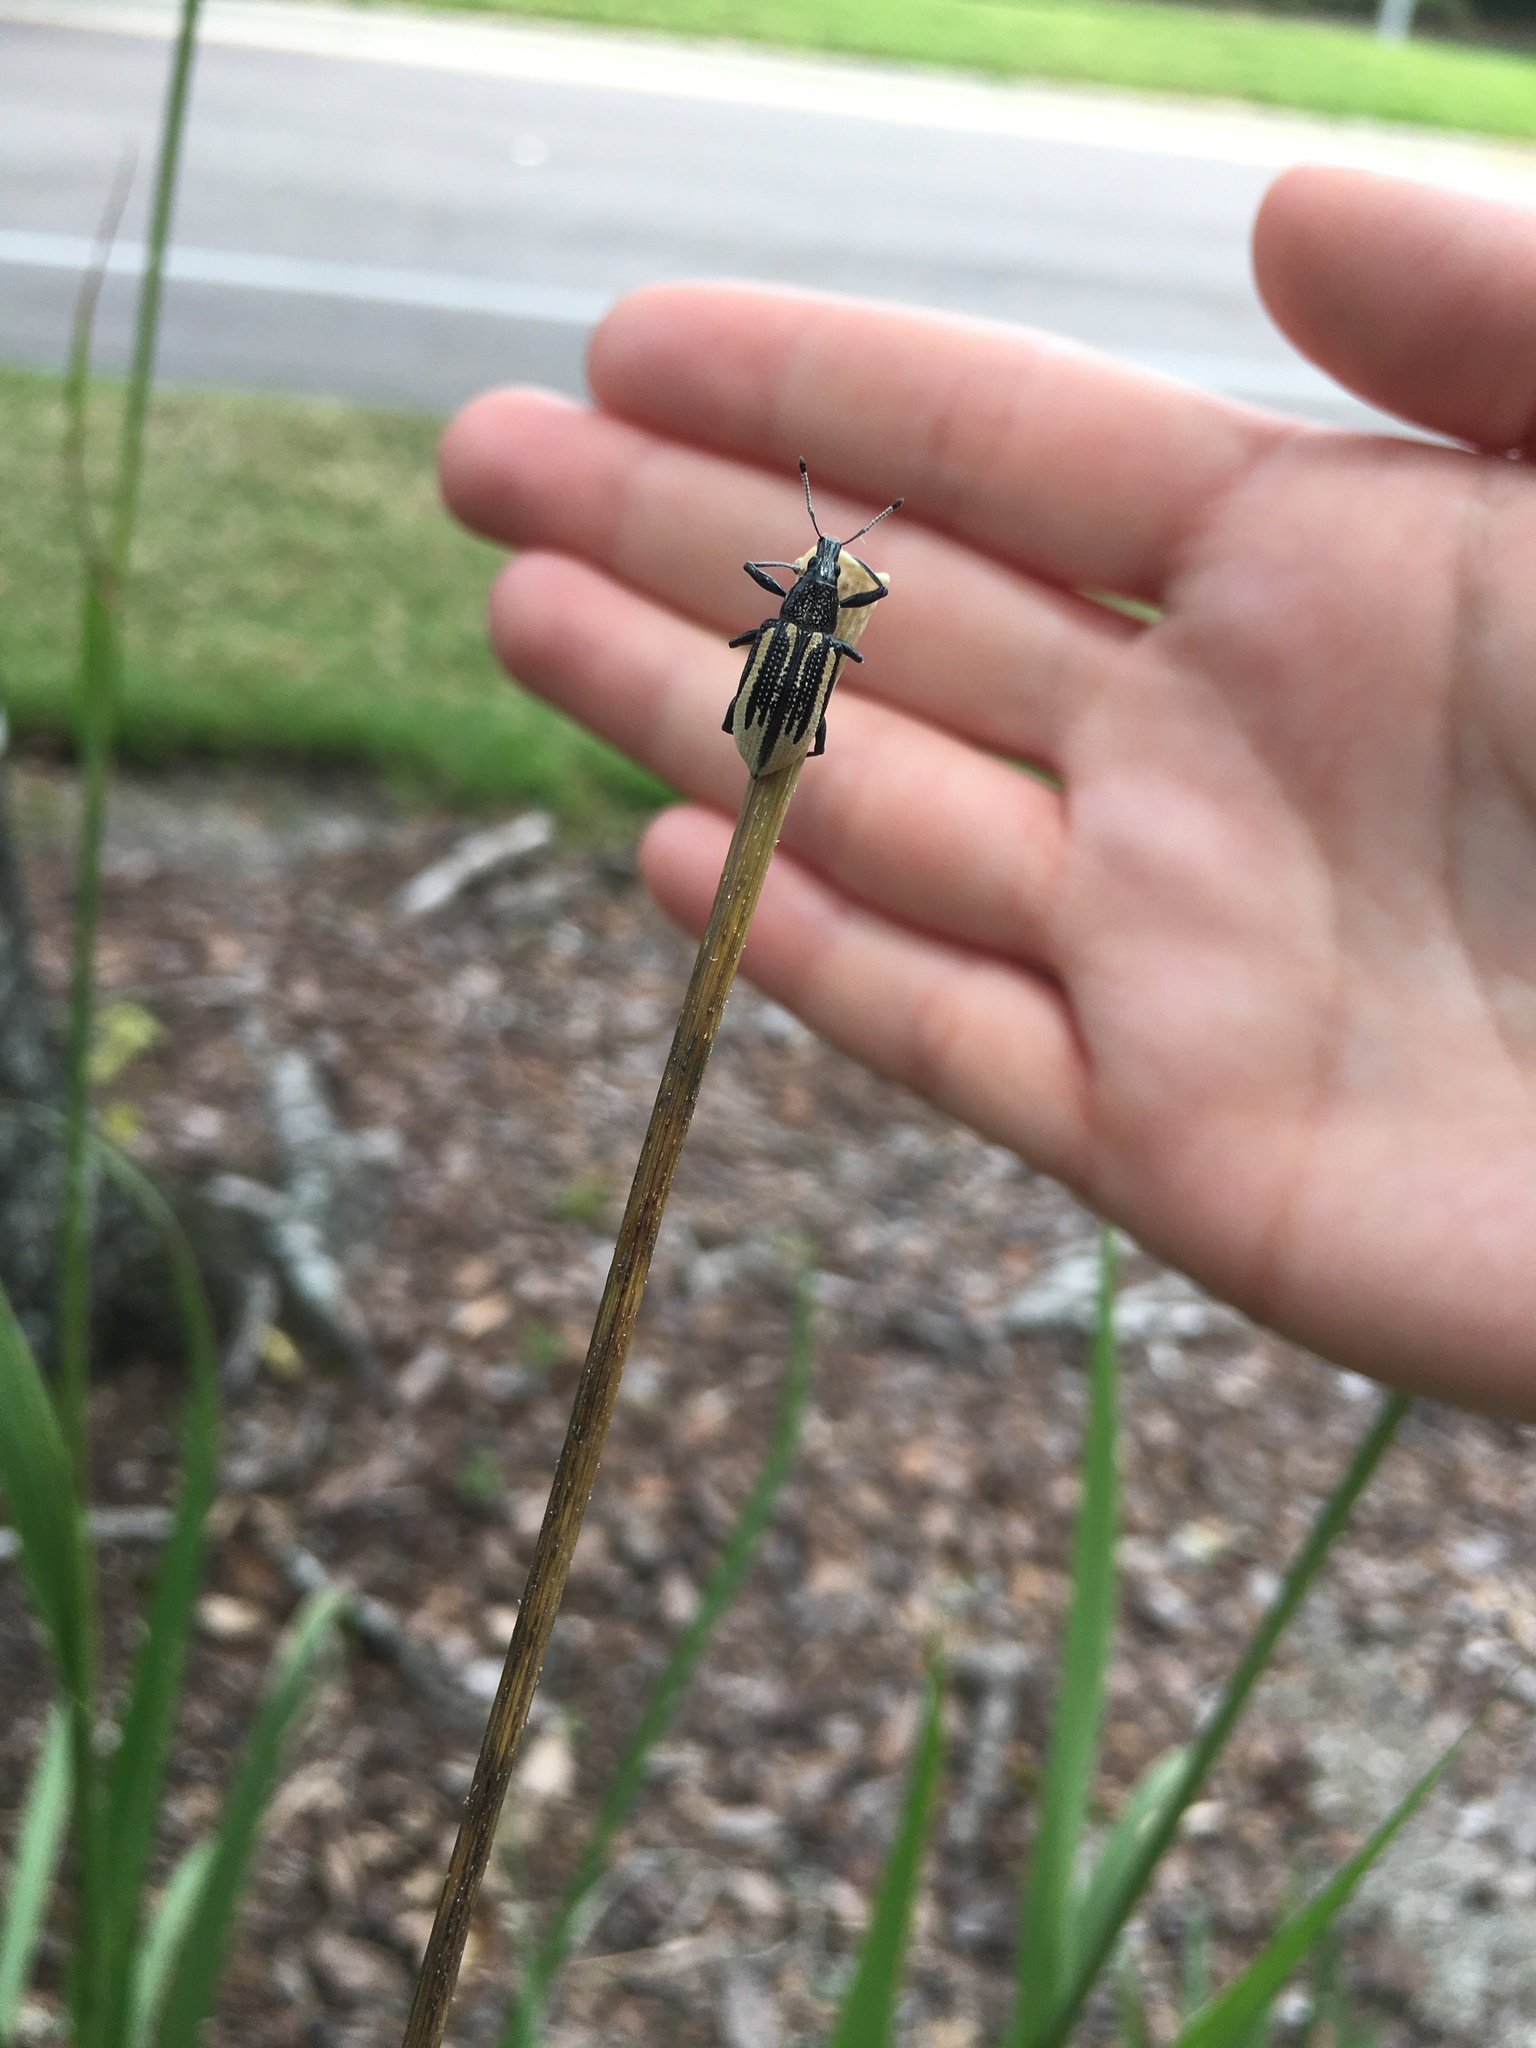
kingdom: Animalia
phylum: Arthropoda
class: Insecta
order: Coleoptera
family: Curculionidae
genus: Diaprepes
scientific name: Diaprepes abbreviatus
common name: Root weevil
